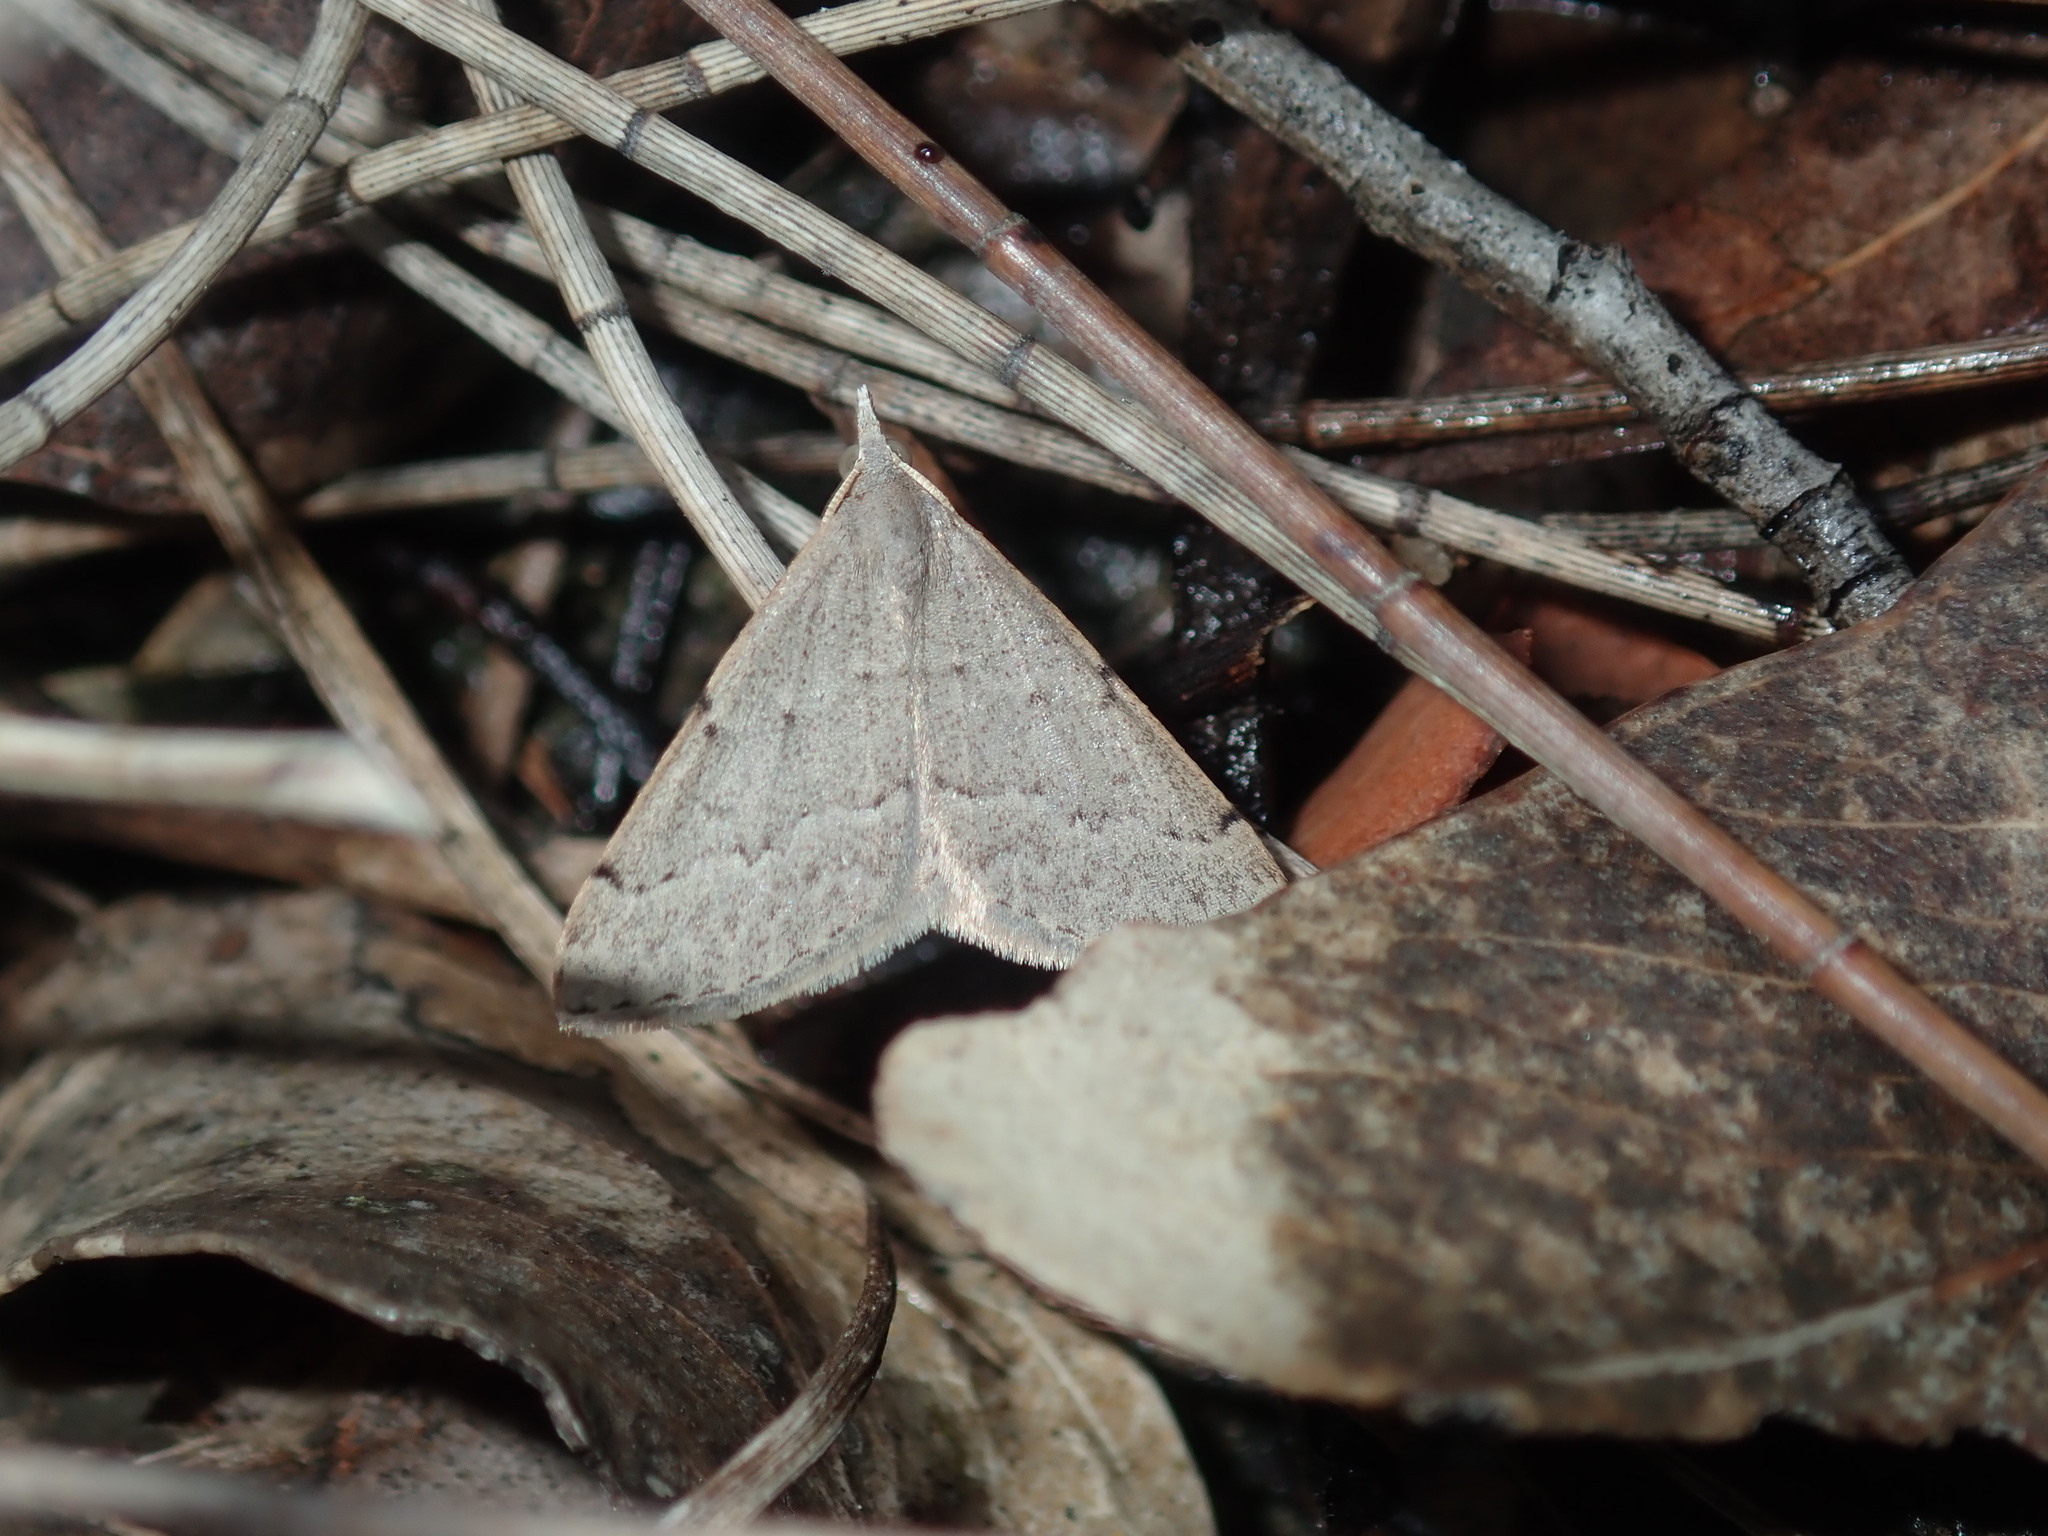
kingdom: Animalia
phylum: Arthropoda
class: Insecta
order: Lepidoptera
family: Geometridae
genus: Dichromodes
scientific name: Dichromodes estigmaria
